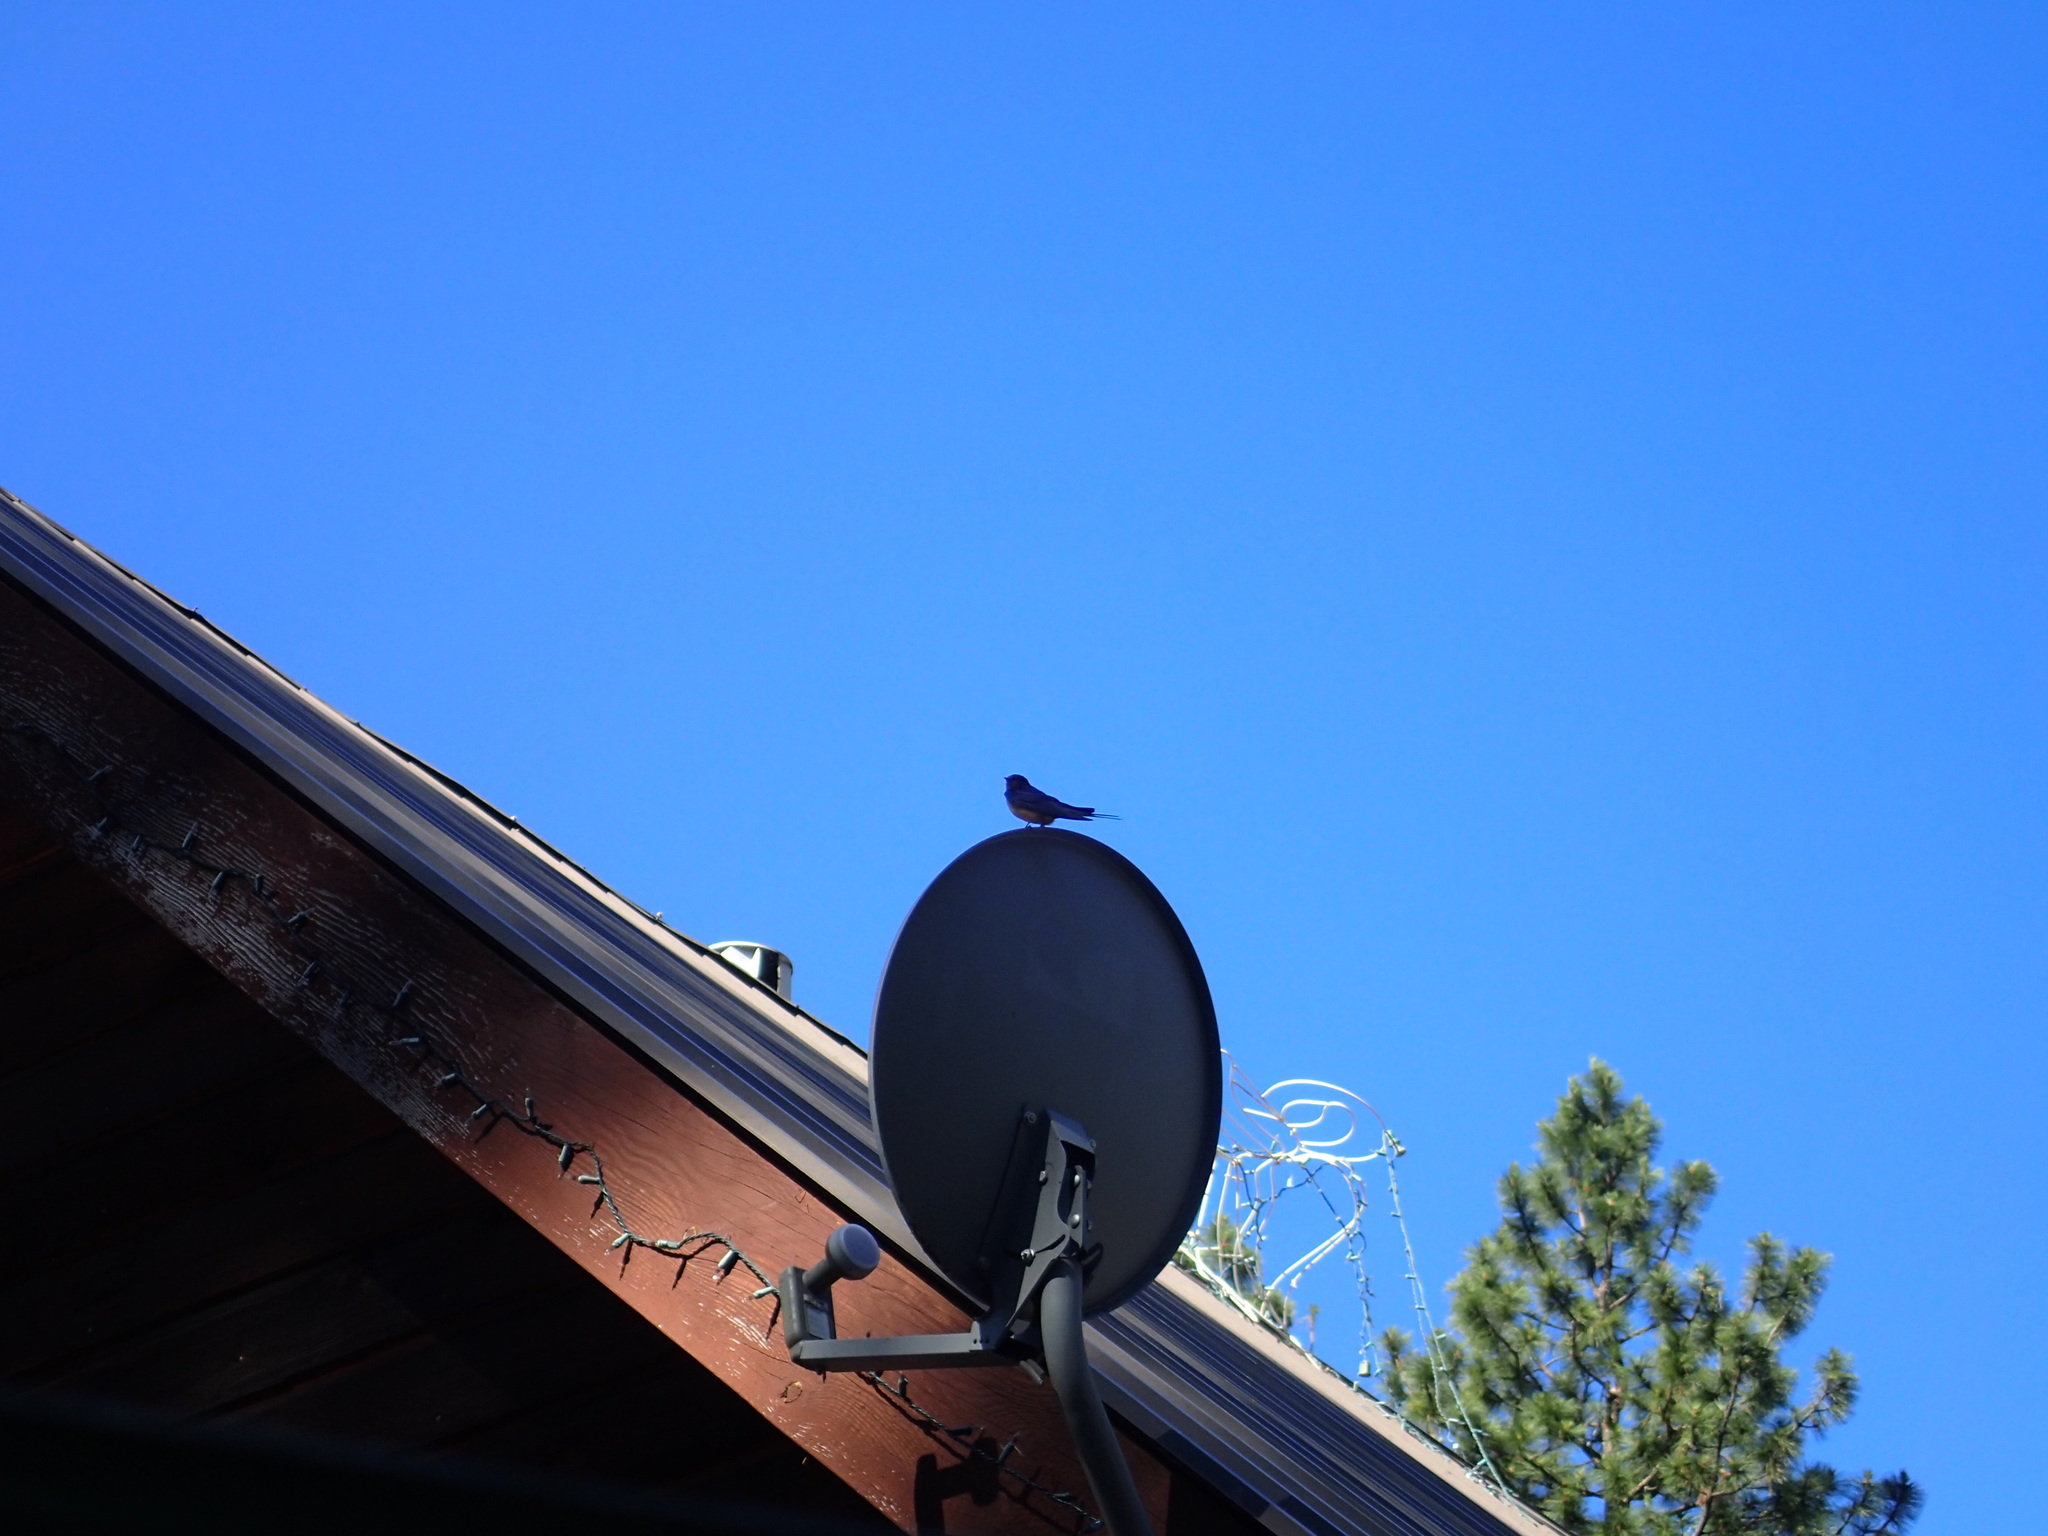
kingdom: Animalia
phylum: Chordata
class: Aves
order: Passeriformes
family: Hirundinidae
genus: Hirundo
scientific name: Hirundo rustica
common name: Barn swallow
